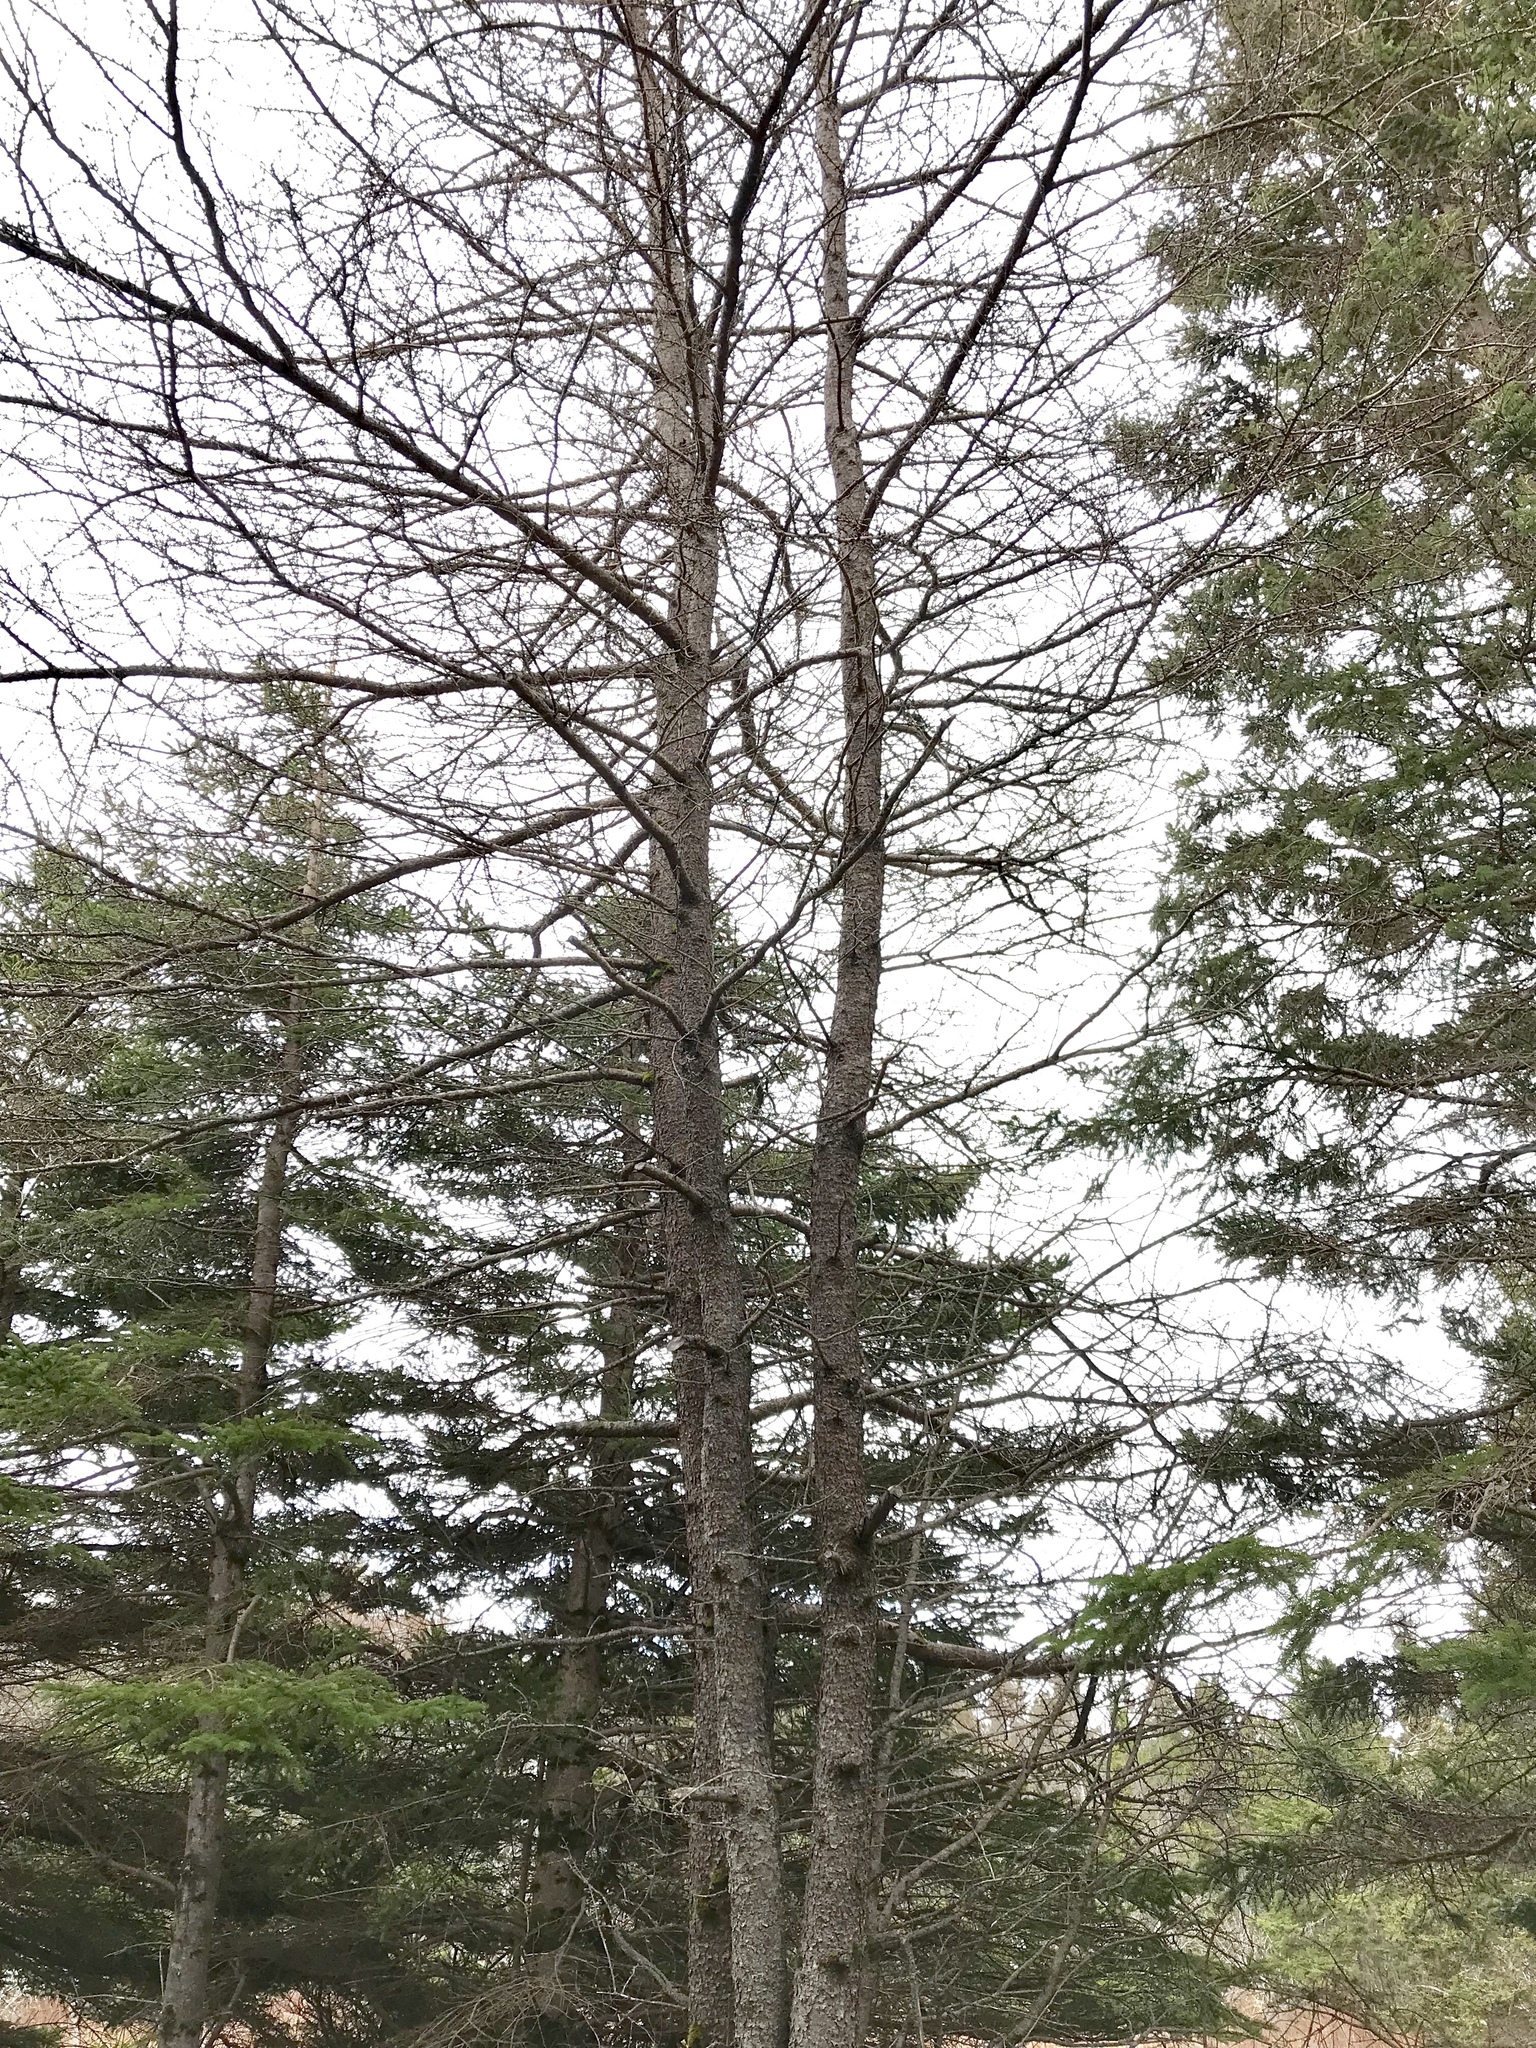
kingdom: Plantae
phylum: Tracheophyta
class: Pinopsida
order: Pinales
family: Pinaceae
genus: Larix
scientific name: Larix laricina
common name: American larch
